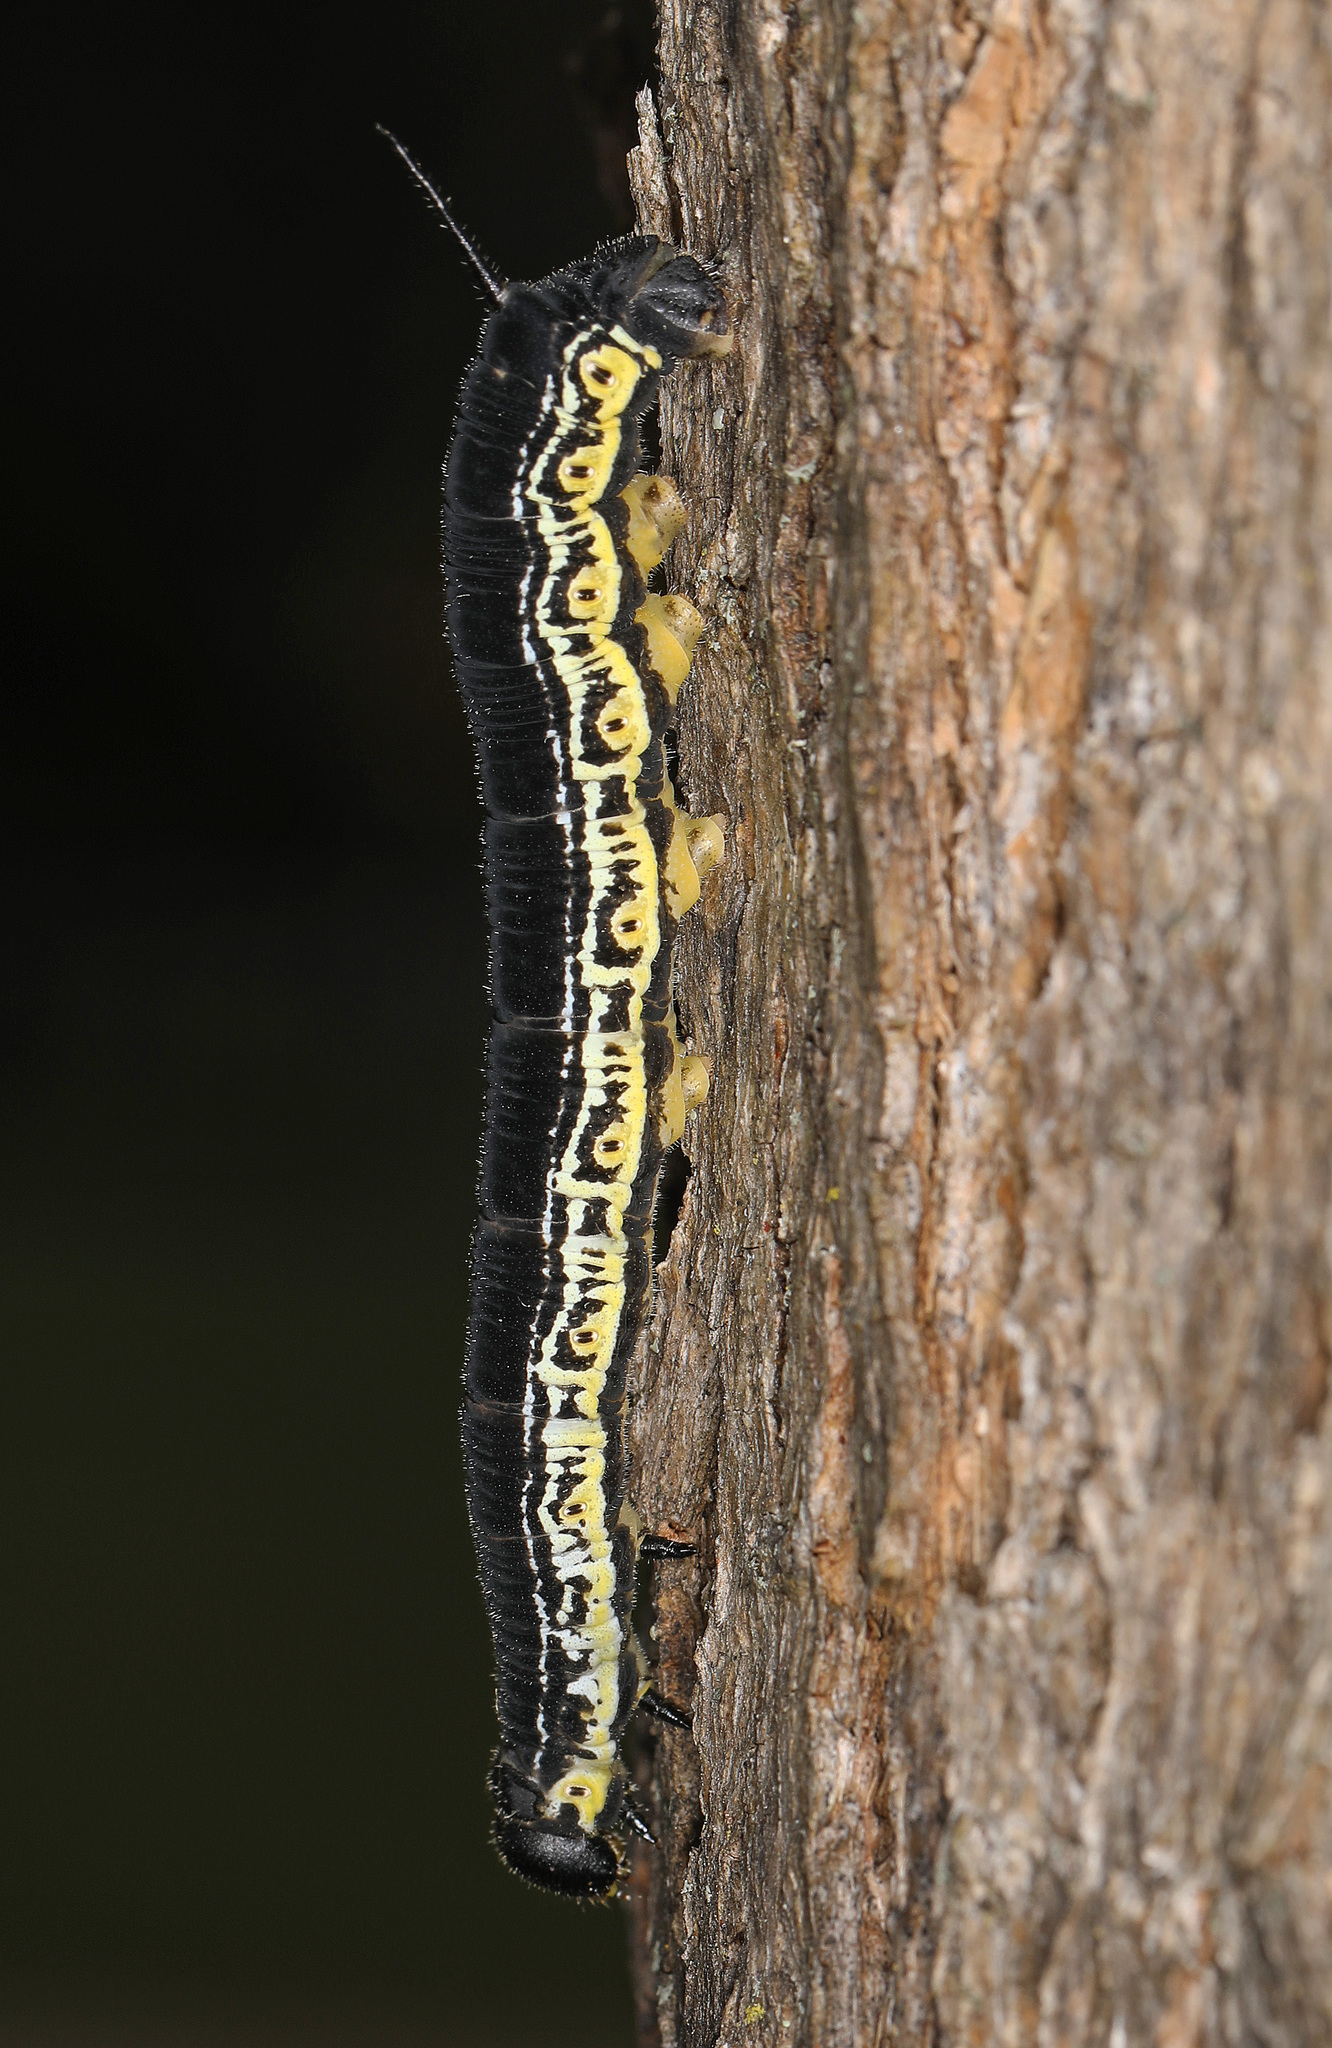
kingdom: Animalia
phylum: Arthropoda
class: Insecta
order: Lepidoptera
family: Sphingidae
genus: Ceratomia
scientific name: Ceratomia catalpae
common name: Catalpa hornworm
